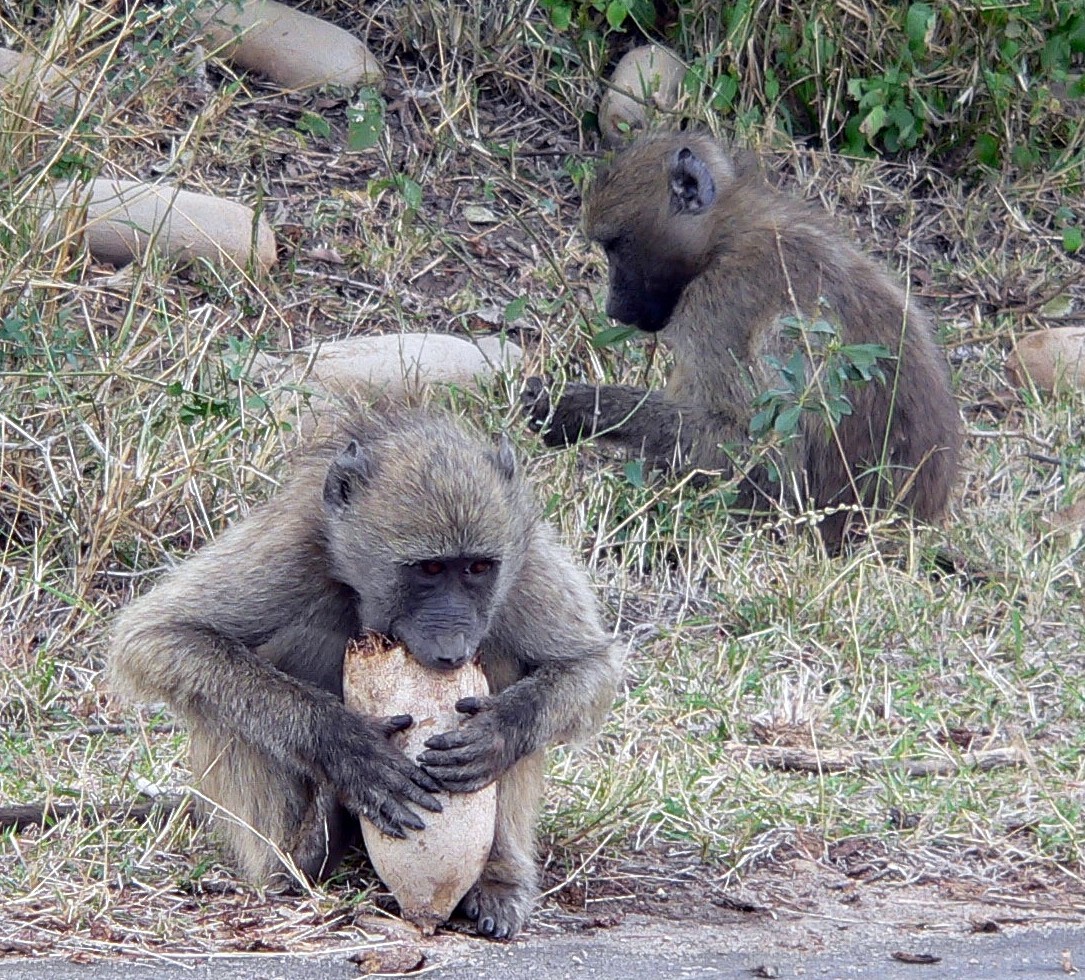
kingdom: Animalia
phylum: Chordata
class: Mammalia
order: Primates
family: Cercopithecidae
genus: Papio
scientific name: Papio ursinus
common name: Chacma baboon
